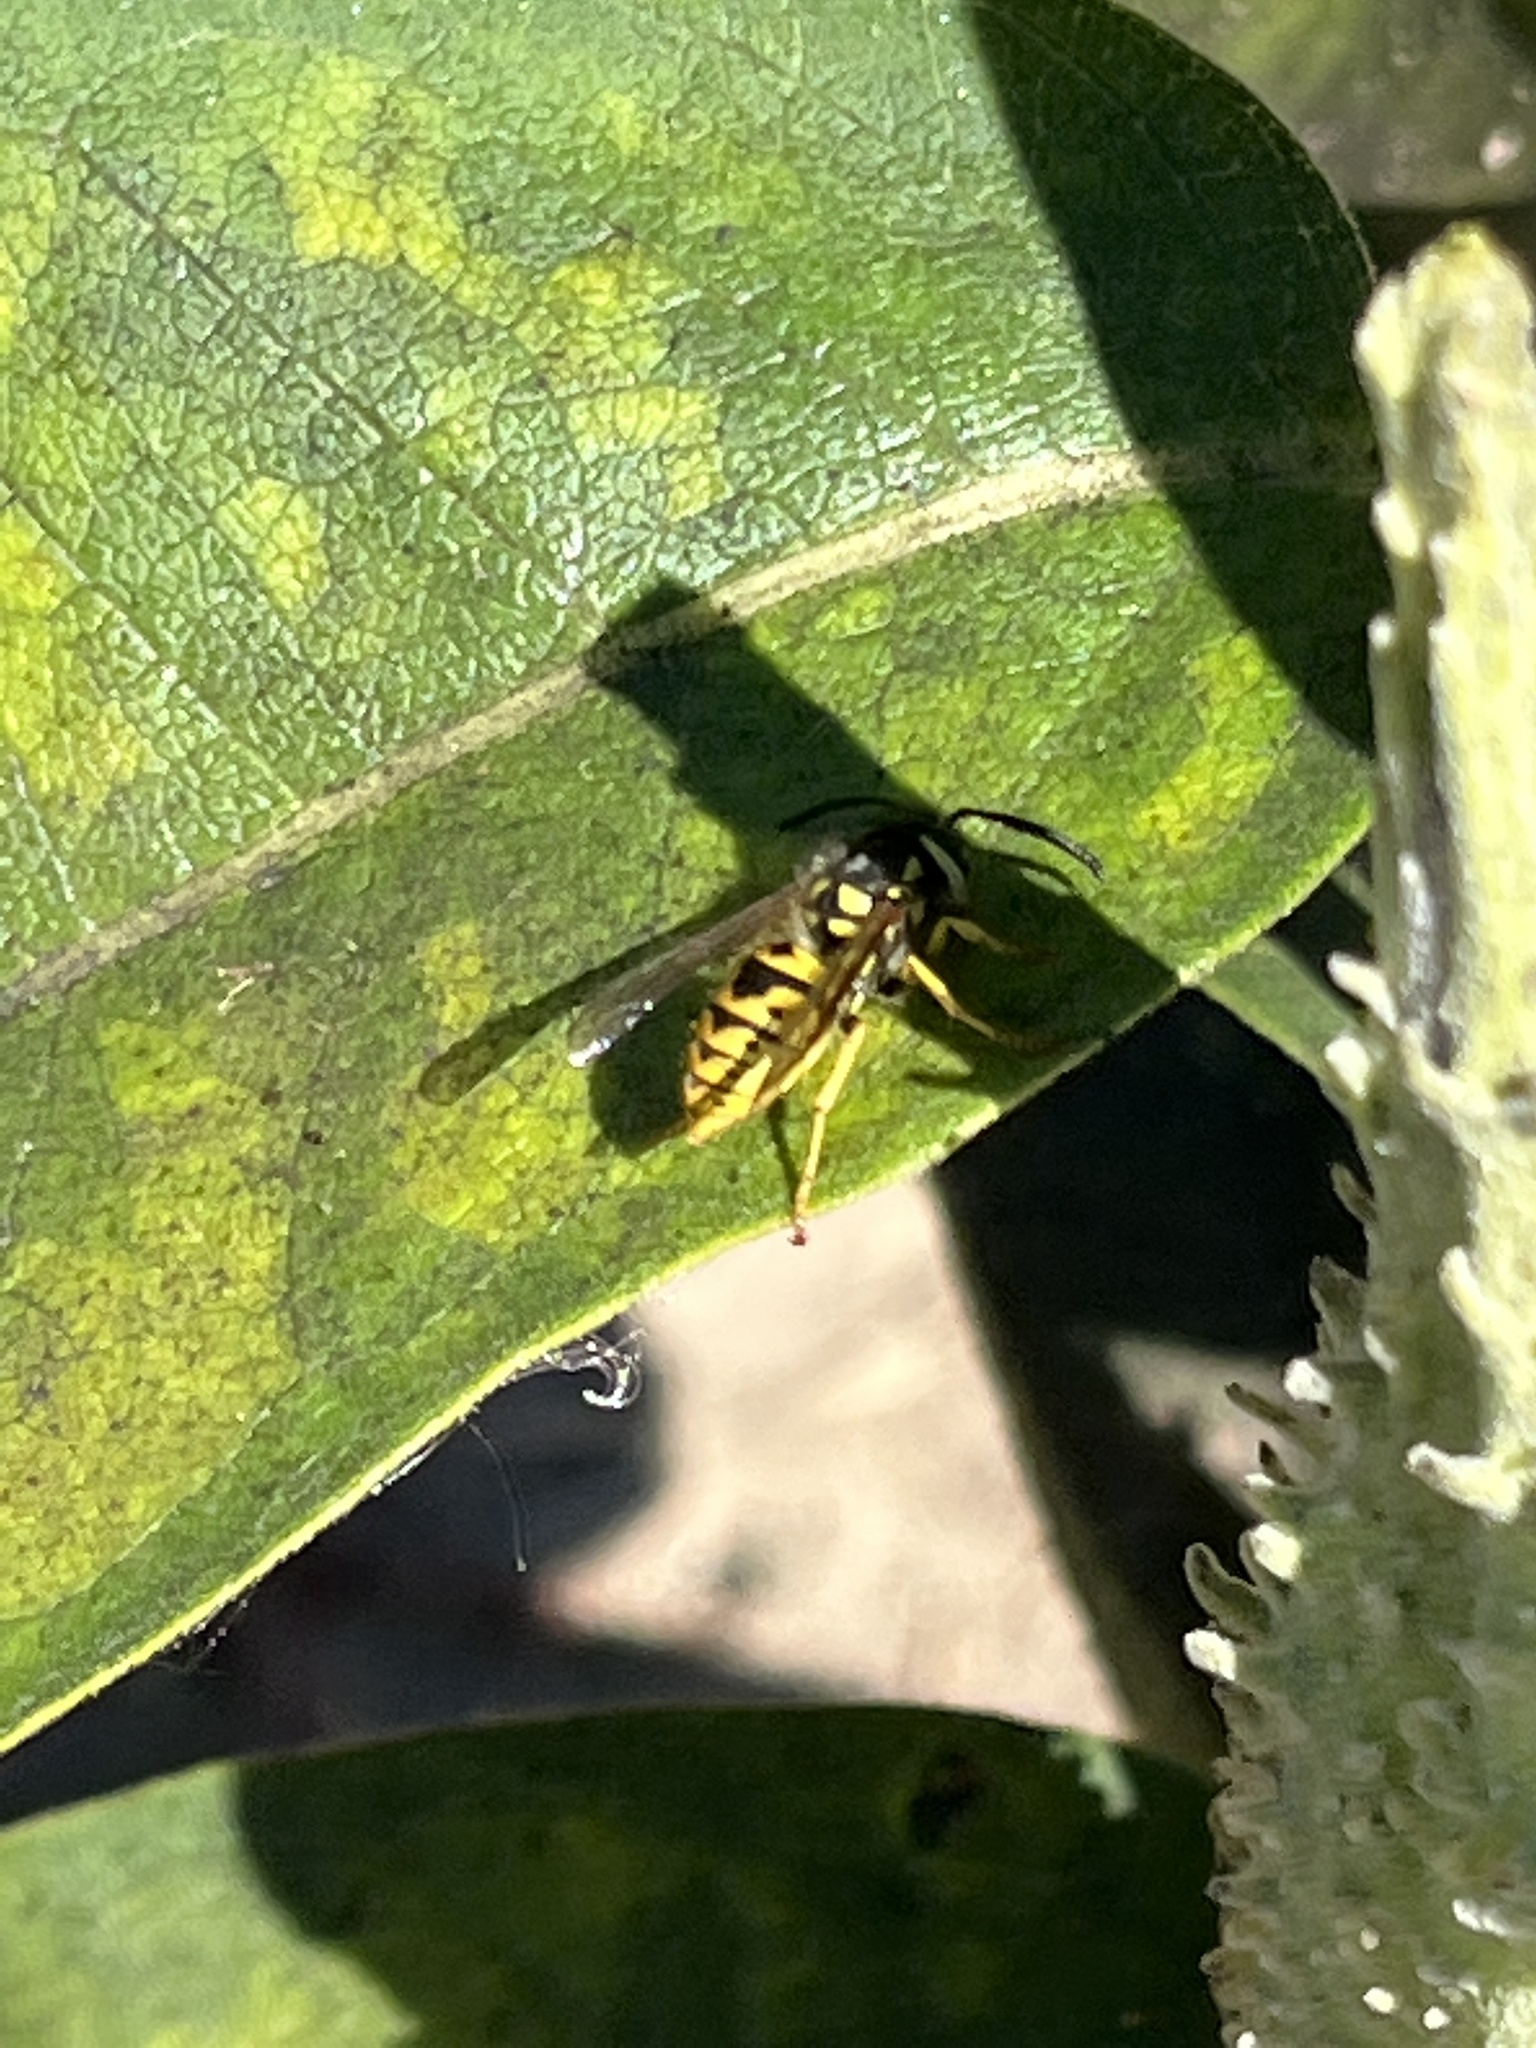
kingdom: Animalia
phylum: Arthropoda
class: Insecta
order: Hymenoptera
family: Vespidae
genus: Vespula
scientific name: Vespula germanica
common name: German wasp
